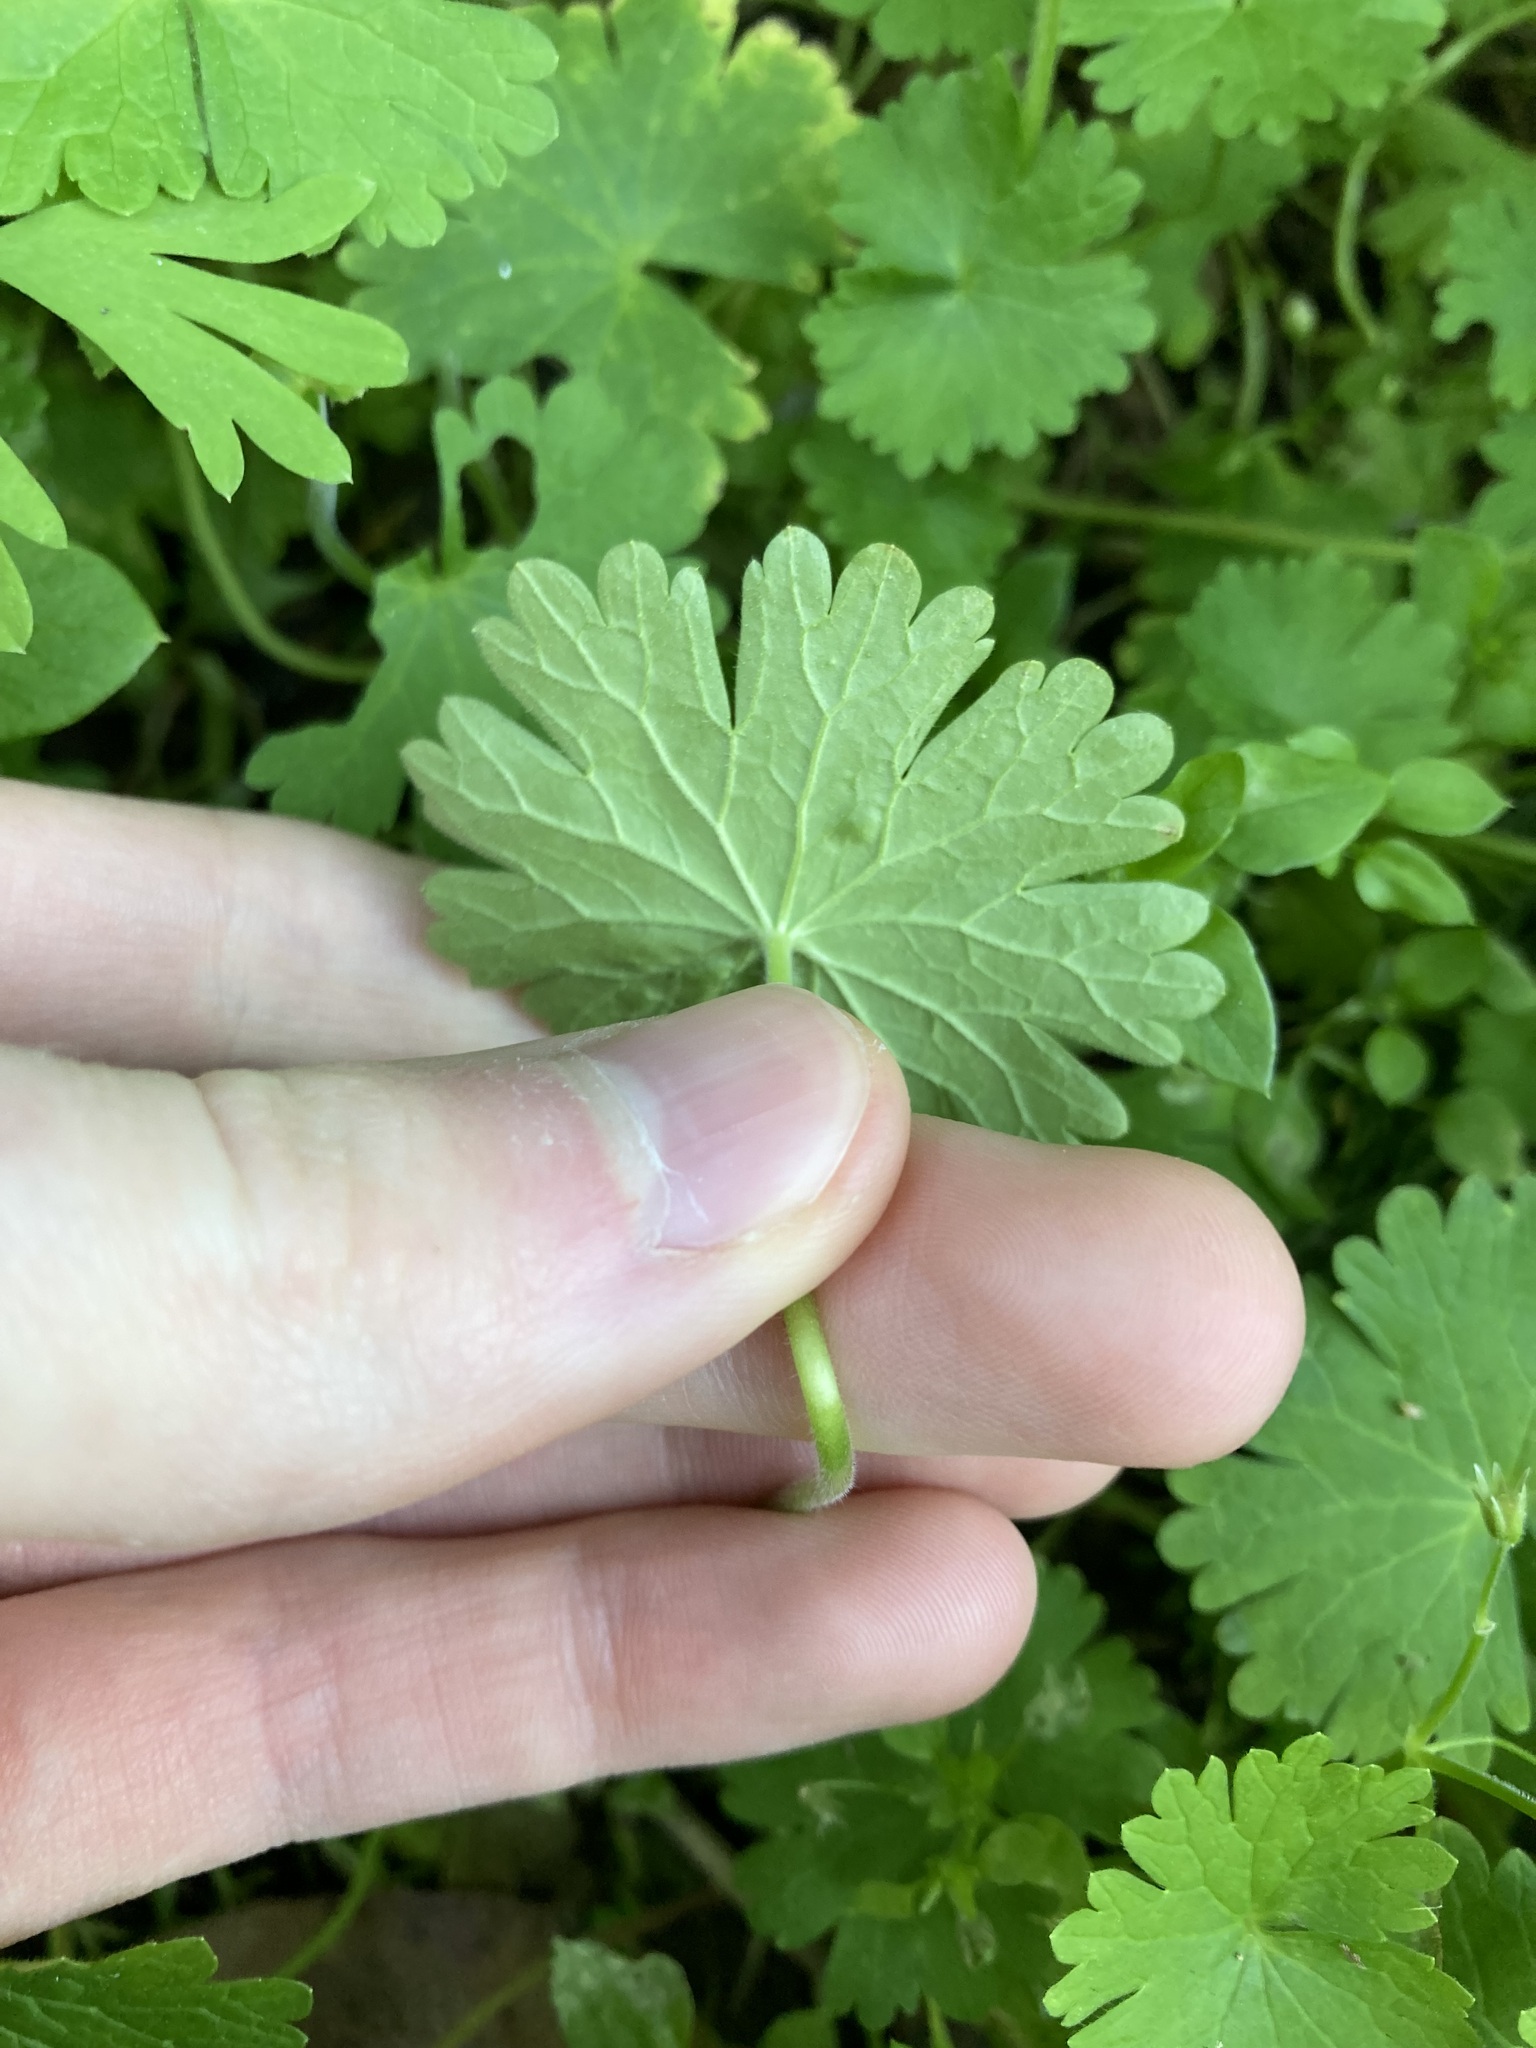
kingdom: Plantae
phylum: Tracheophyta
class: Magnoliopsida
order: Geraniales
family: Geraniaceae
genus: Geranium
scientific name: Geranium molle
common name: Dove's-foot crane's-bill
